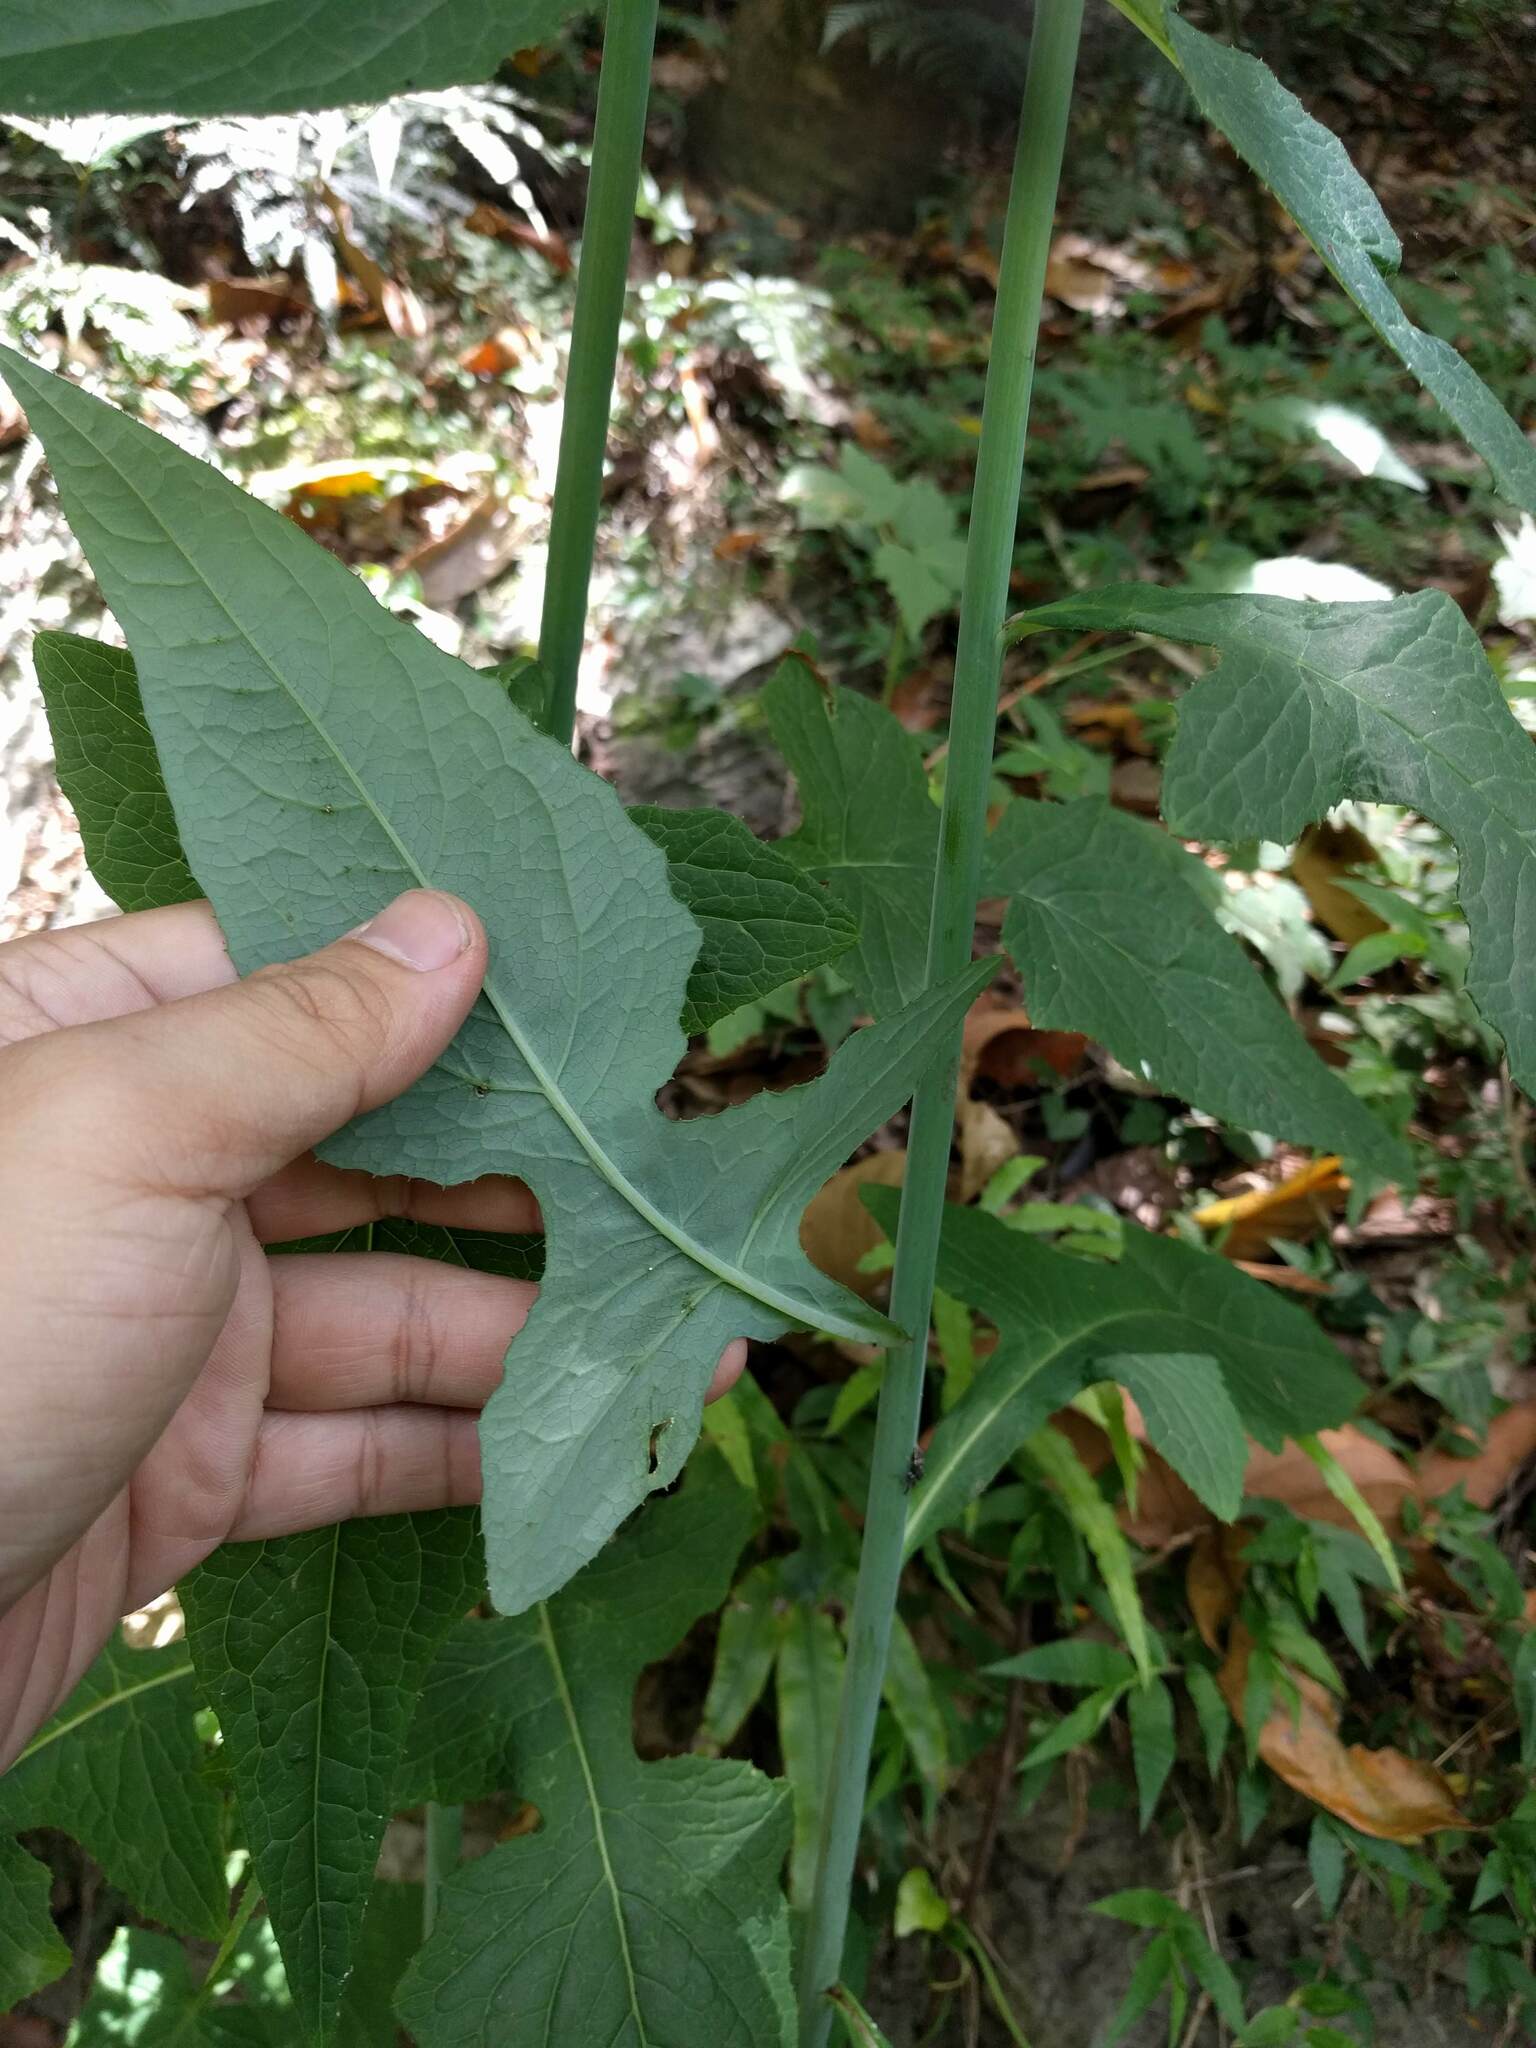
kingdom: Plantae
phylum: Tracheophyta
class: Magnoliopsida
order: Asterales
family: Asteraceae
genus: Paraprenanthes
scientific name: Paraprenanthes sororia
